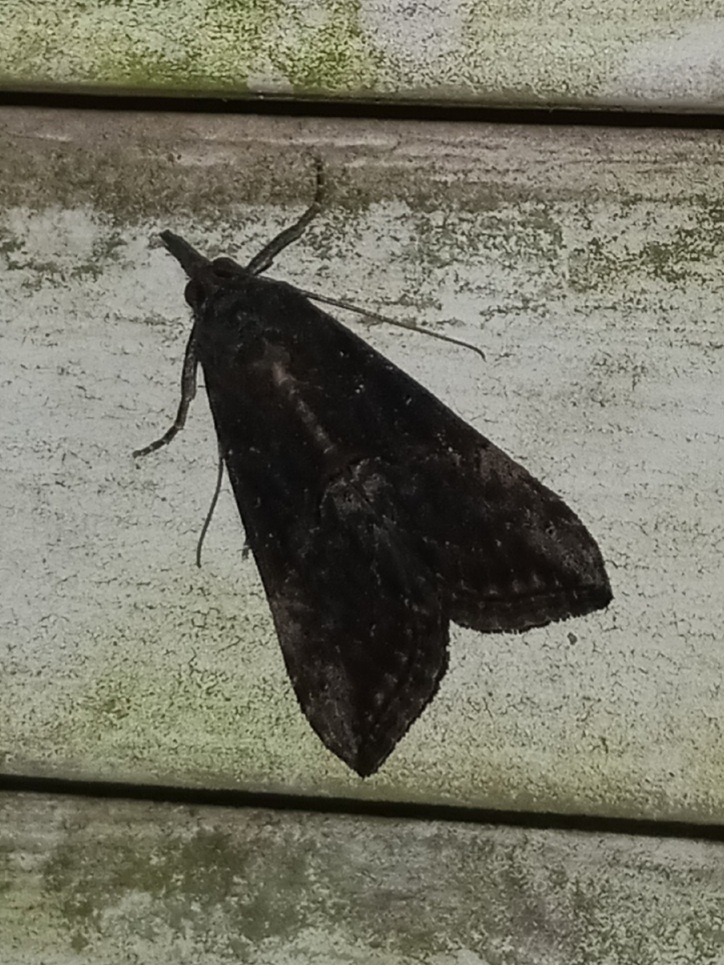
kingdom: Animalia
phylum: Arthropoda
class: Insecta
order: Lepidoptera
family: Erebidae
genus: Hypena
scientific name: Hypena scabra
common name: Green cloverworm
